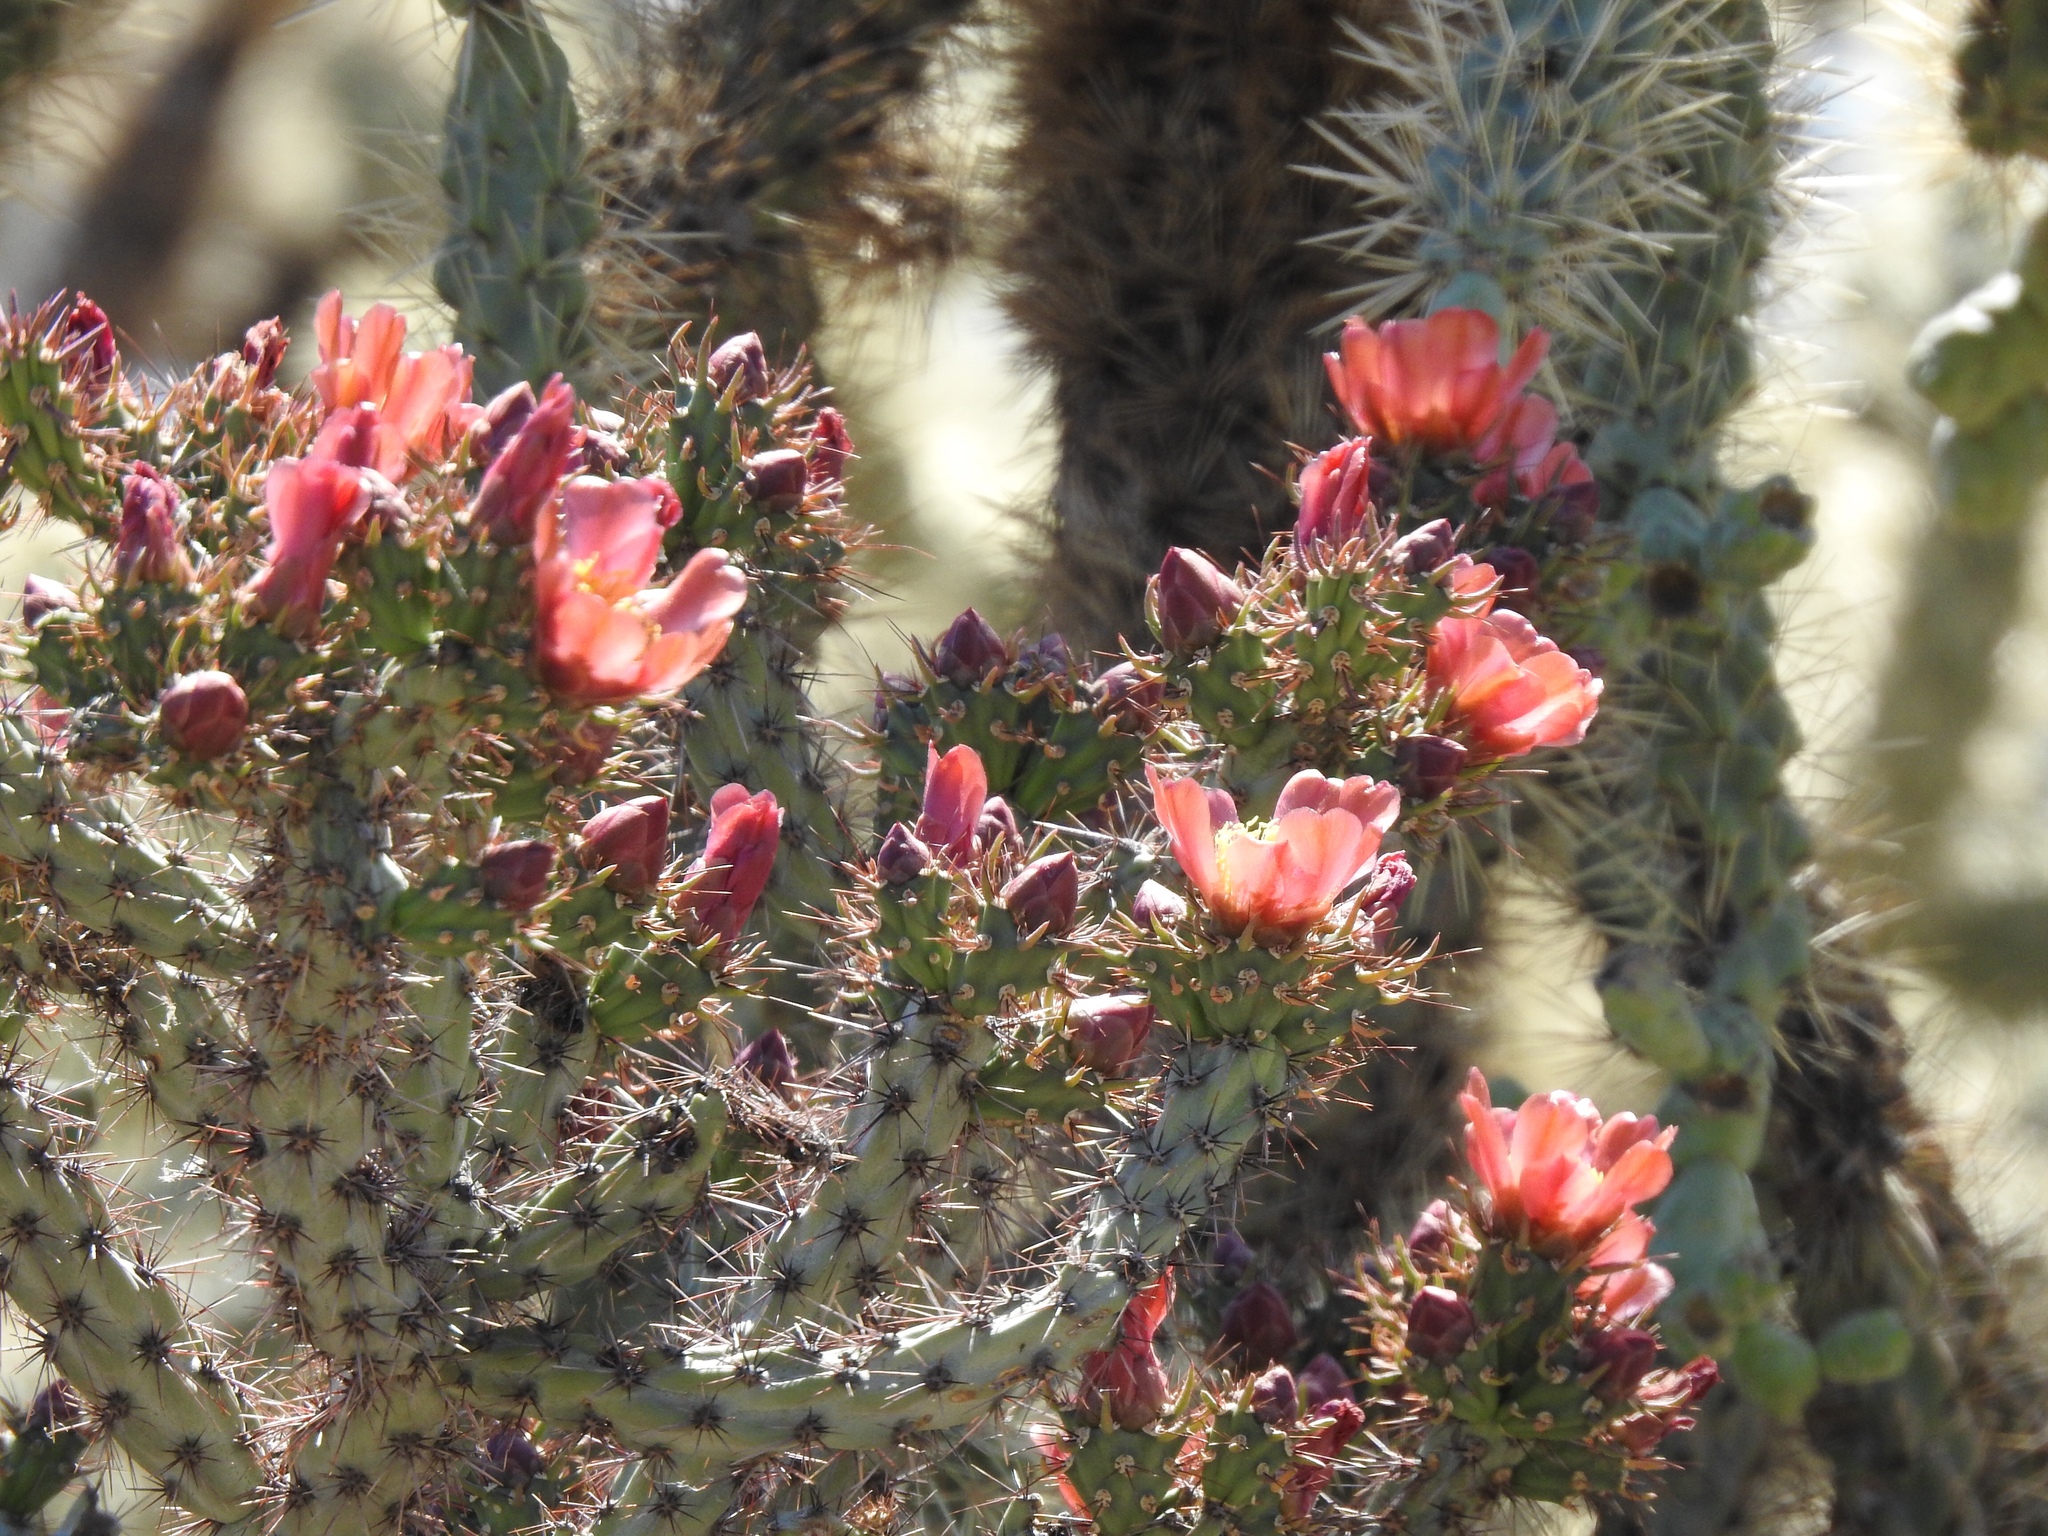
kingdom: Plantae
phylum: Tracheophyta
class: Magnoliopsida
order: Caryophyllales
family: Cactaceae
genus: Cylindropuntia
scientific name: Cylindropuntia thurberi
